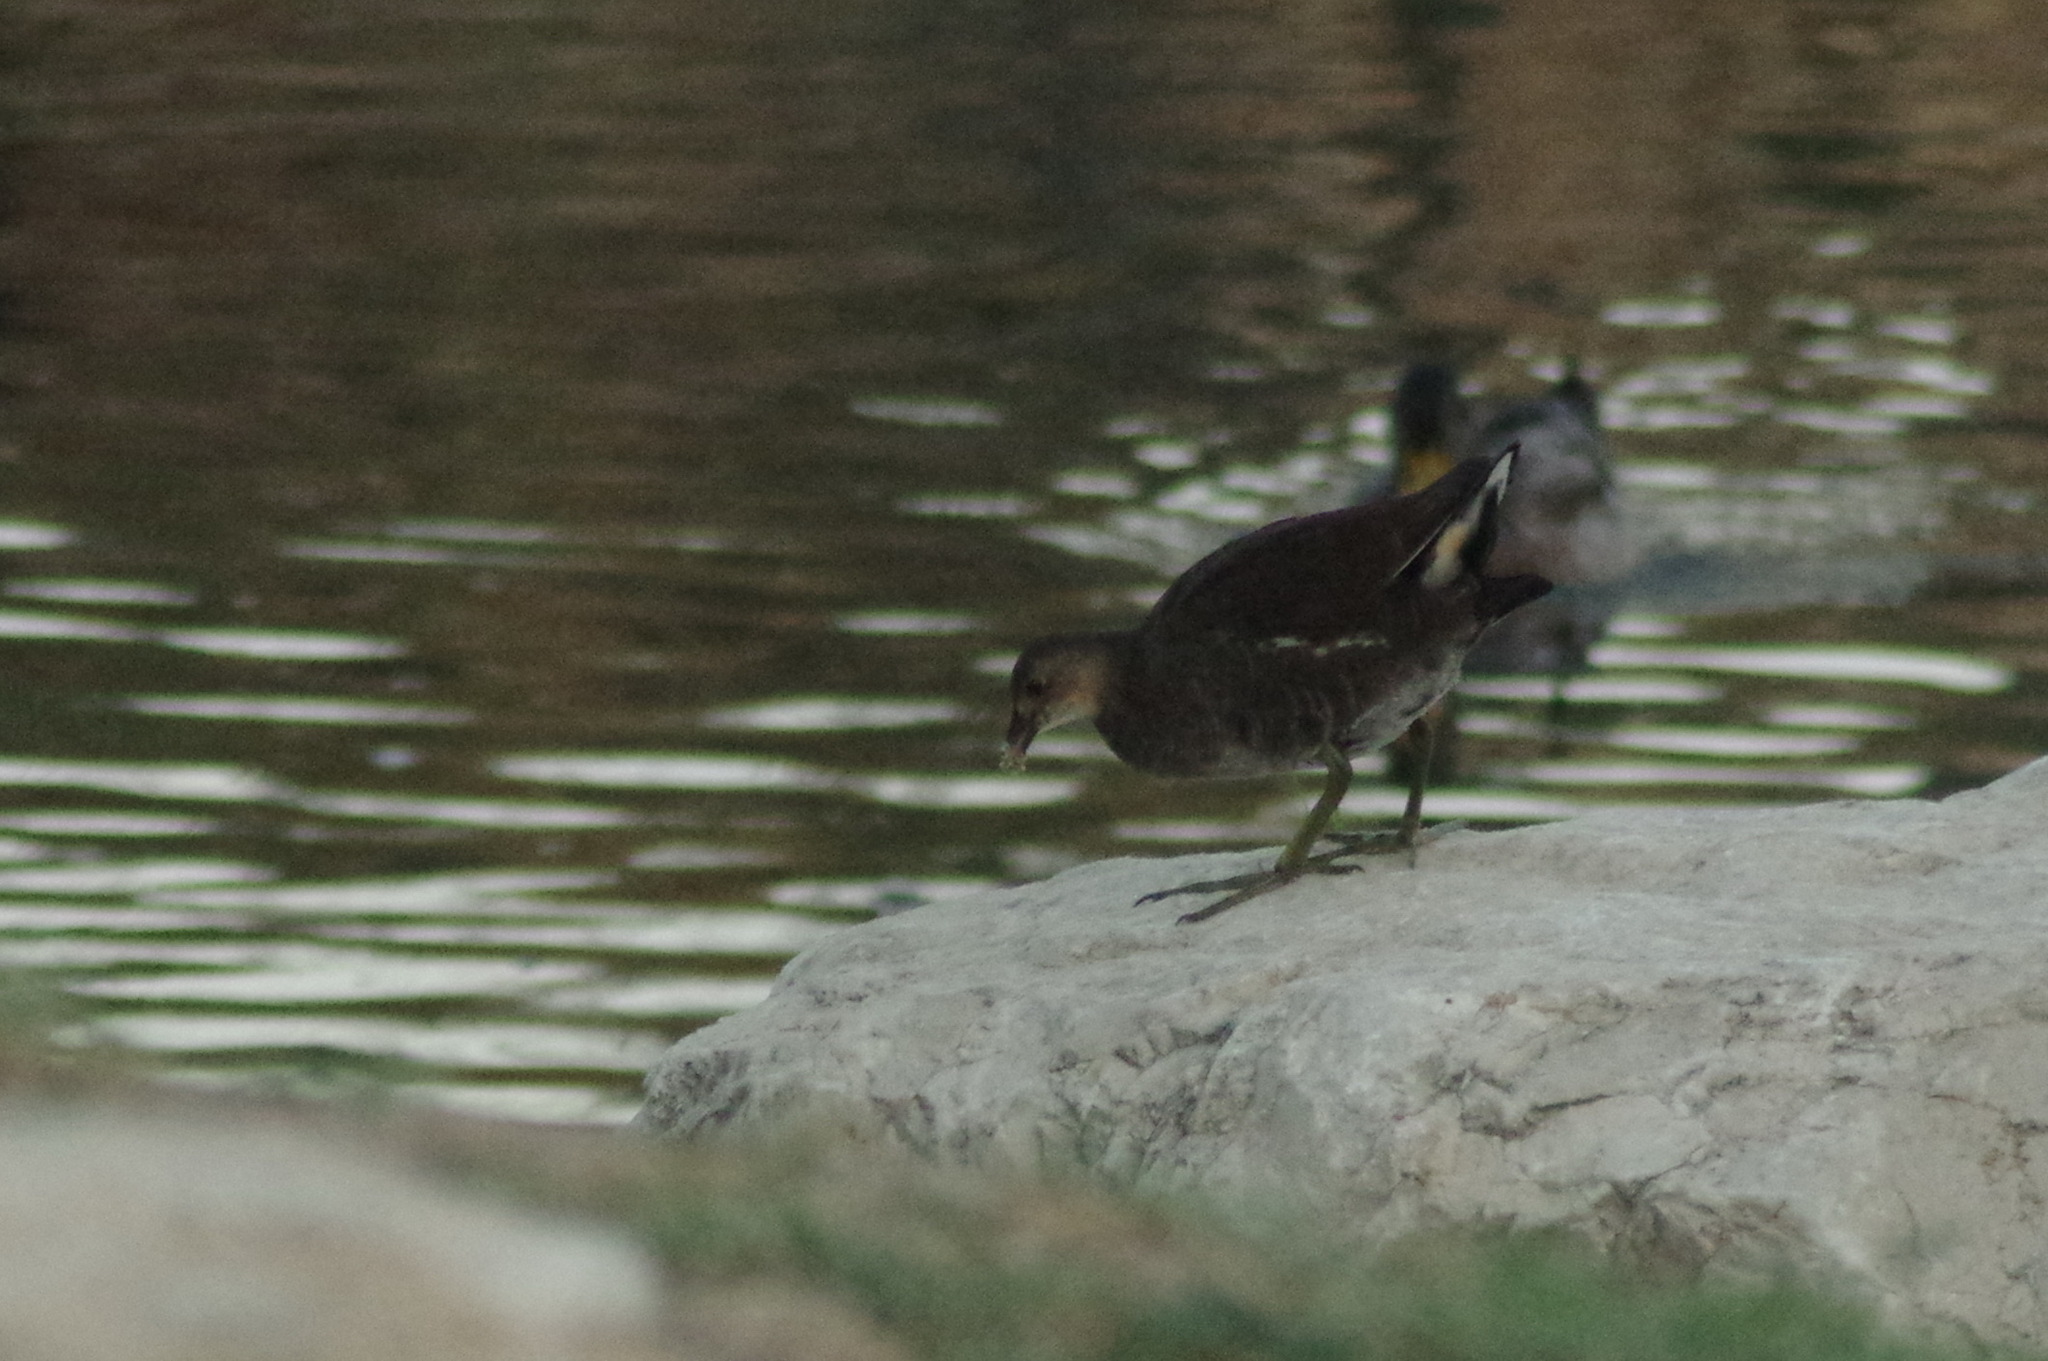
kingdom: Animalia
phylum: Chordata
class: Aves
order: Gruiformes
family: Rallidae
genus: Gallinula
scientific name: Gallinula chloropus
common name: Common moorhen
